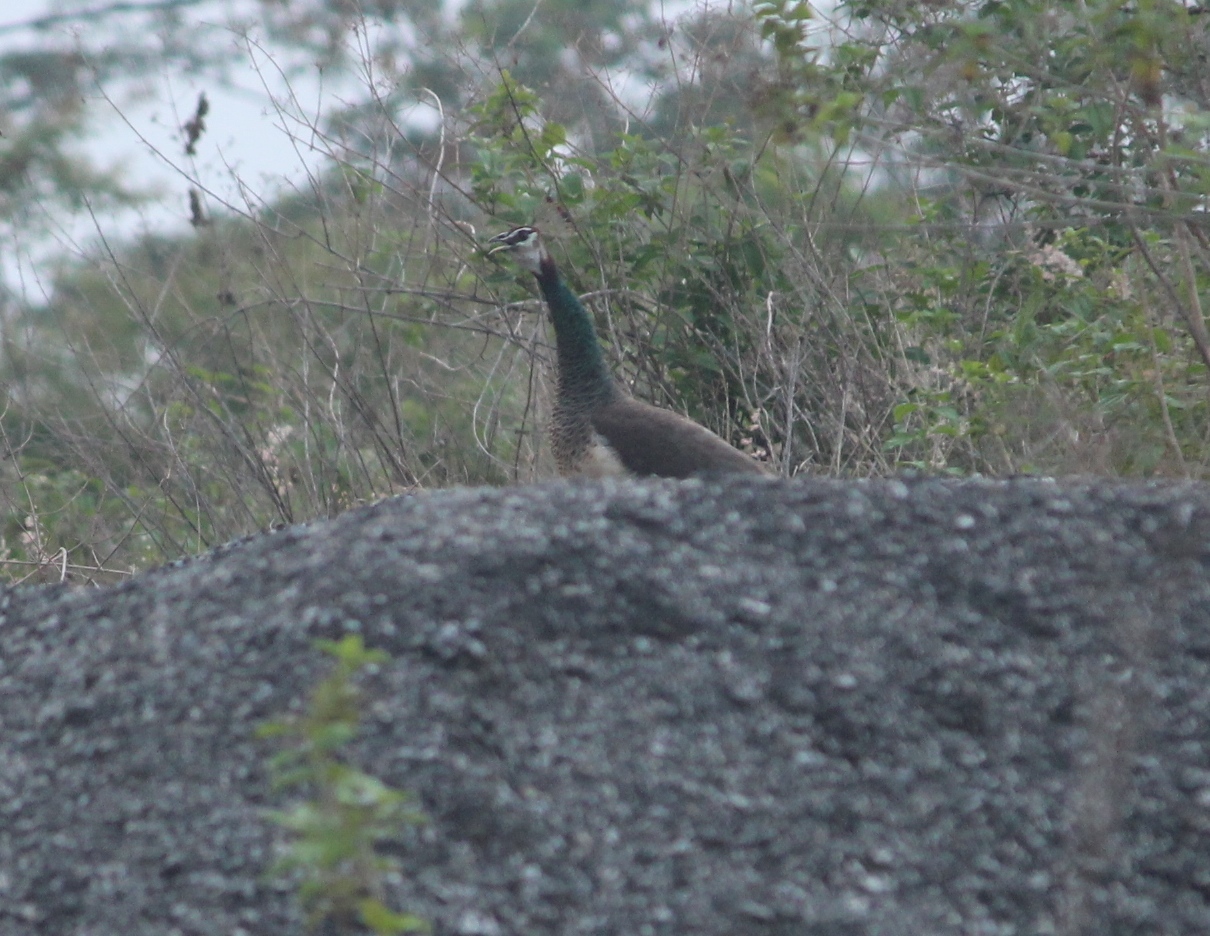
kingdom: Animalia
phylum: Chordata
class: Aves
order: Galliformes
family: Phasianidae
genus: Pavo
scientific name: Pavo cristatus
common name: Indian peafowl
